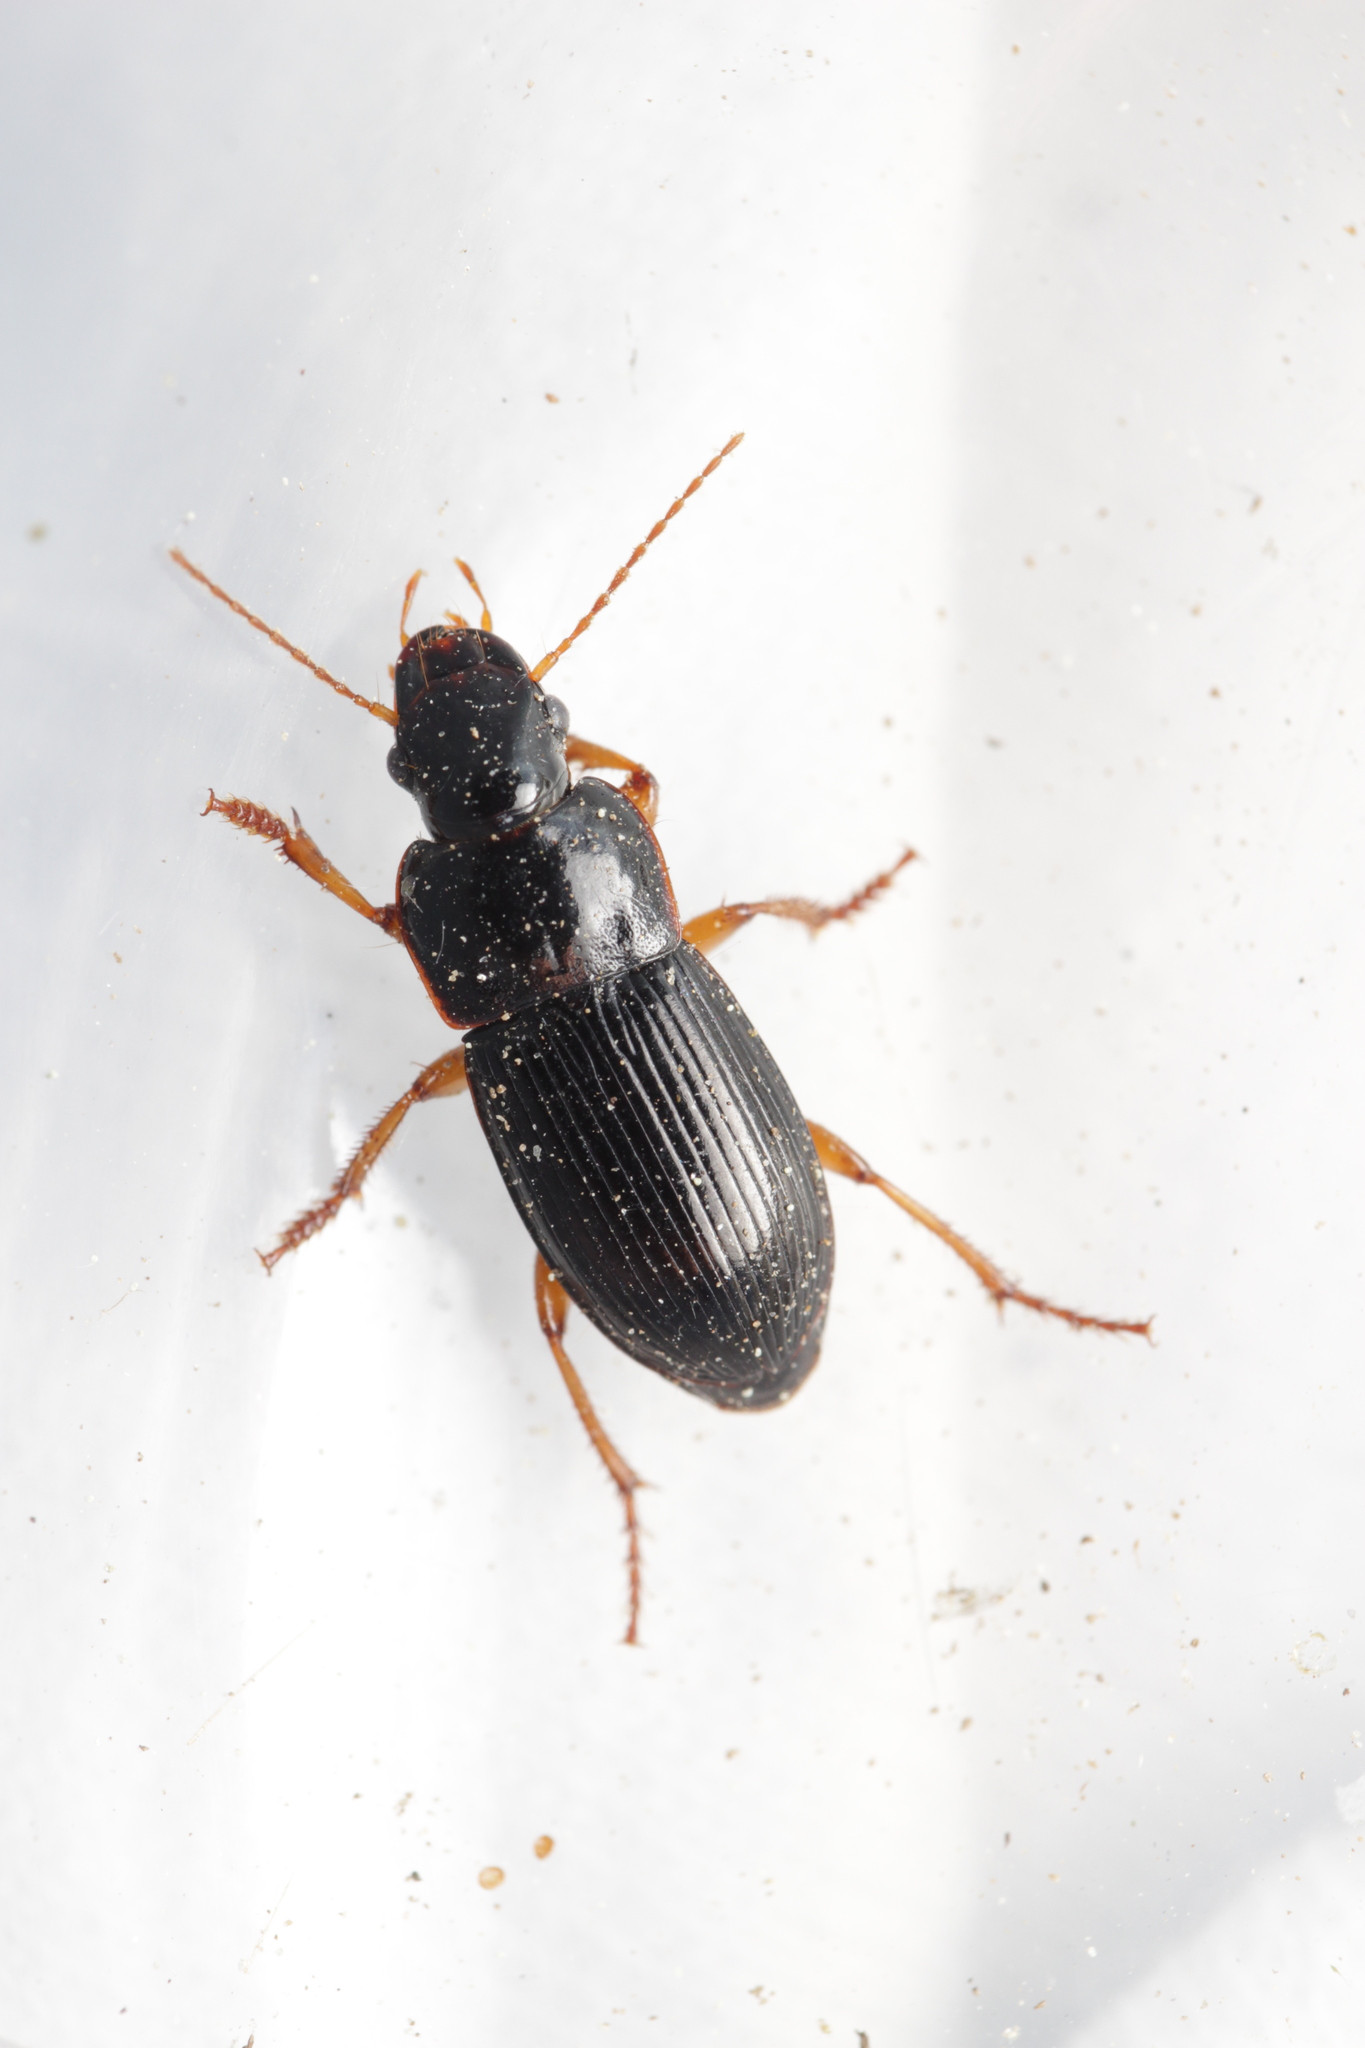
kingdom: Animalia
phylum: Arthropoda
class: Insecta
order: Coleoptera
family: Carabidae
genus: Harpalus
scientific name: Harpalus latus
